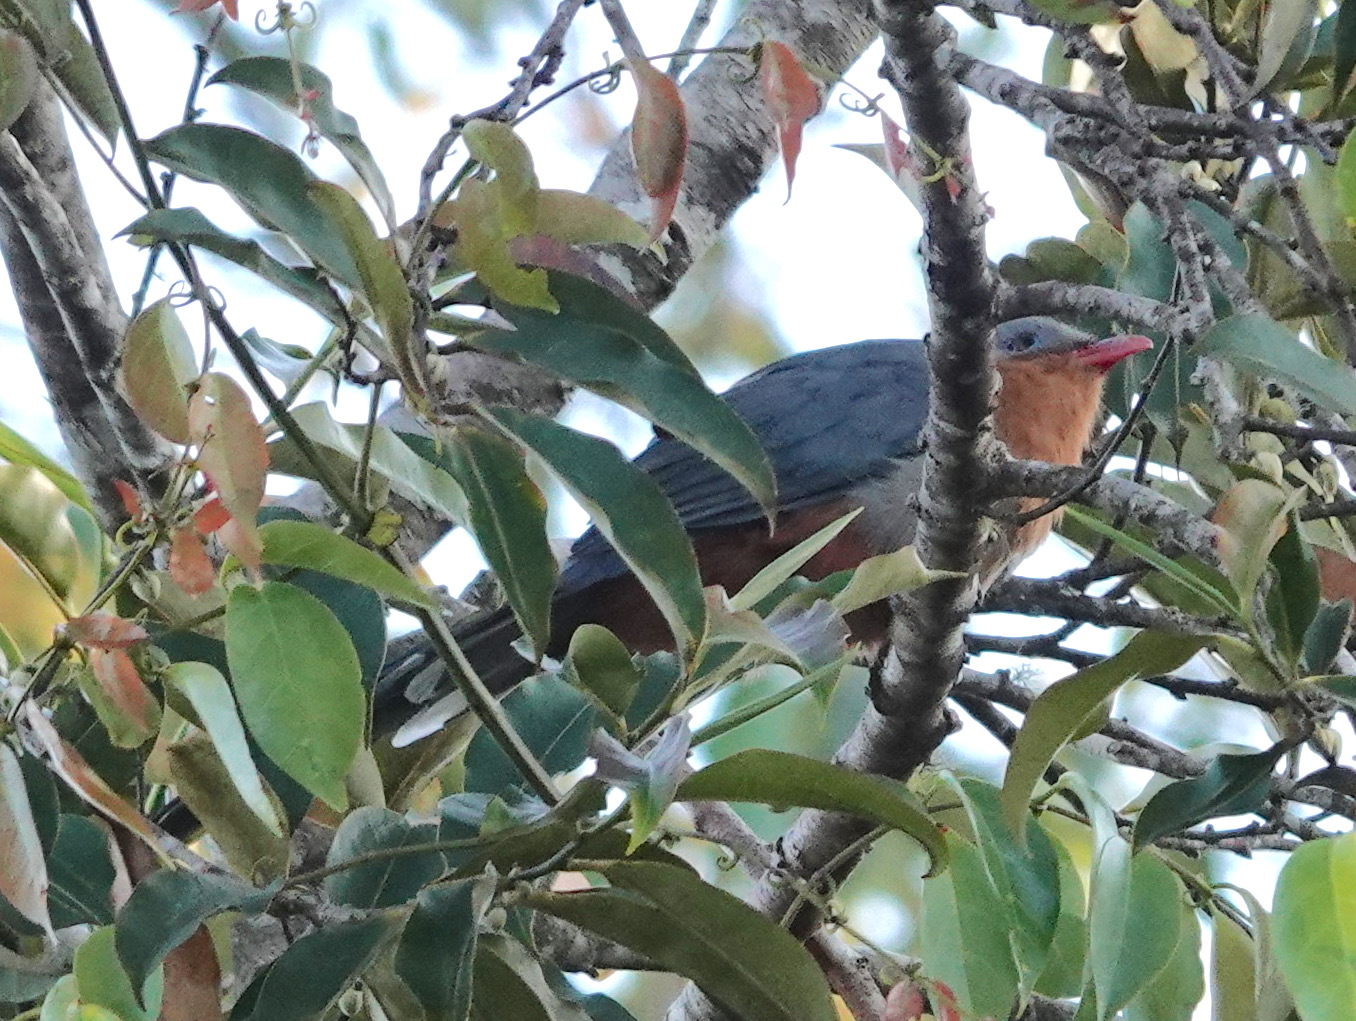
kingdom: Animalia
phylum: Chordata
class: Aves
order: Cuculiformes
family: Cuculidae
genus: Zanclostomus
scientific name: Zanclostomus javanicus
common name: Red-billed malkoha
